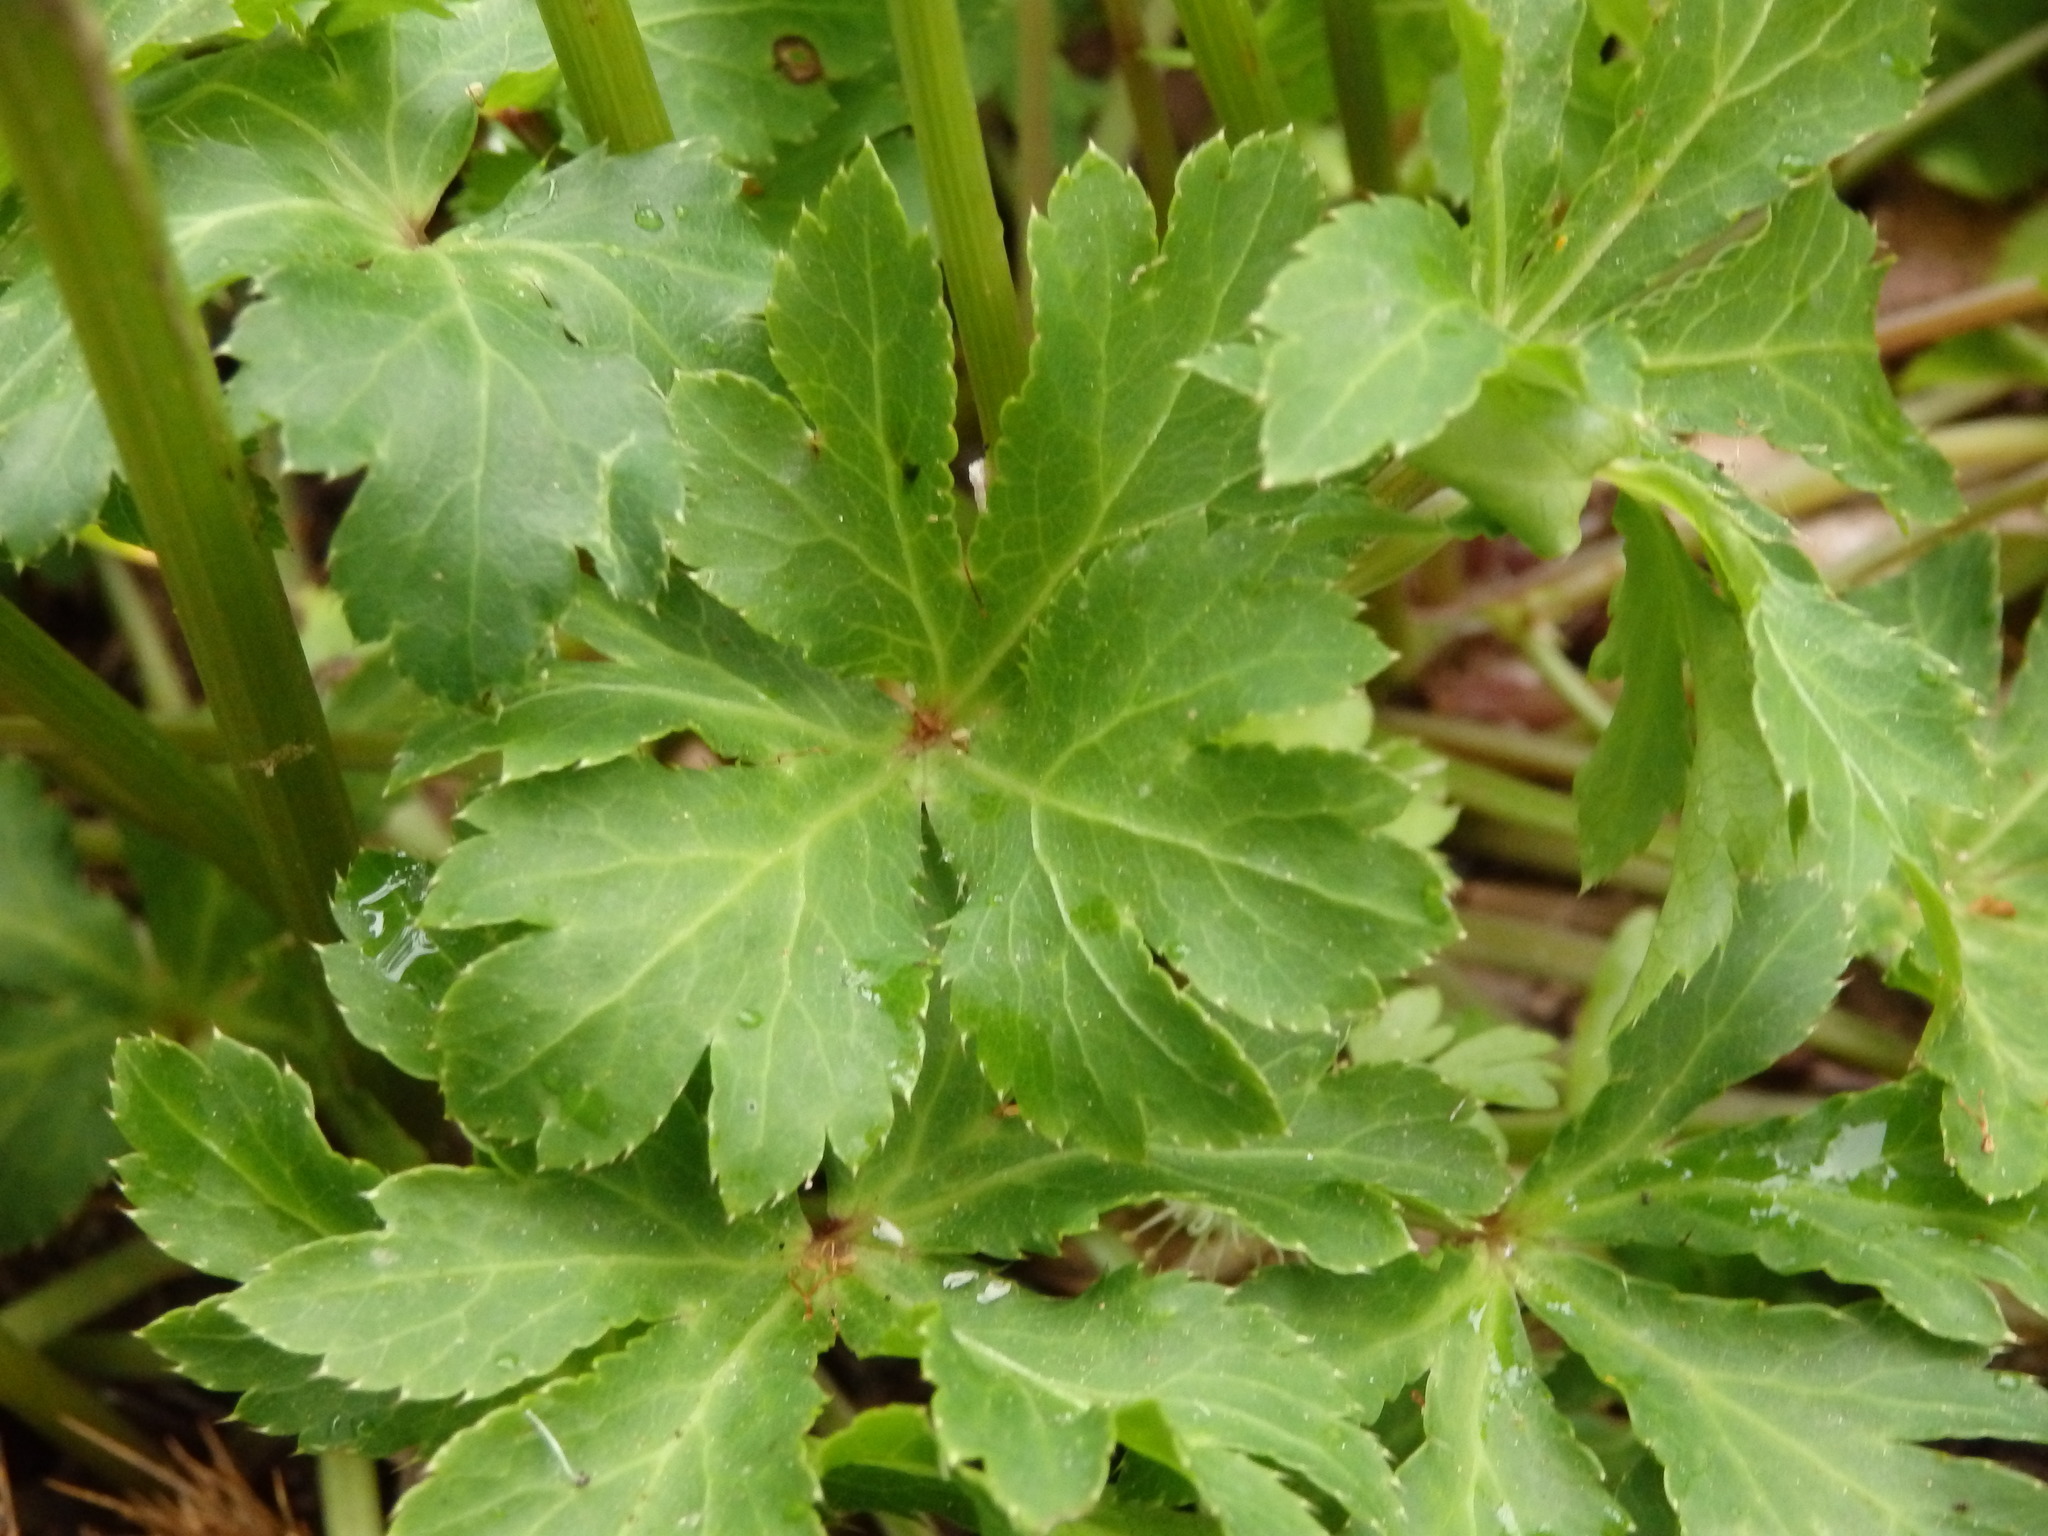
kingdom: Plantae
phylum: Tracheophyta
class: Magnoliopsida
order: Apiales
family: Apiaceae
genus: Sanicula
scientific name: Sanicula europaea
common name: Sanicle
